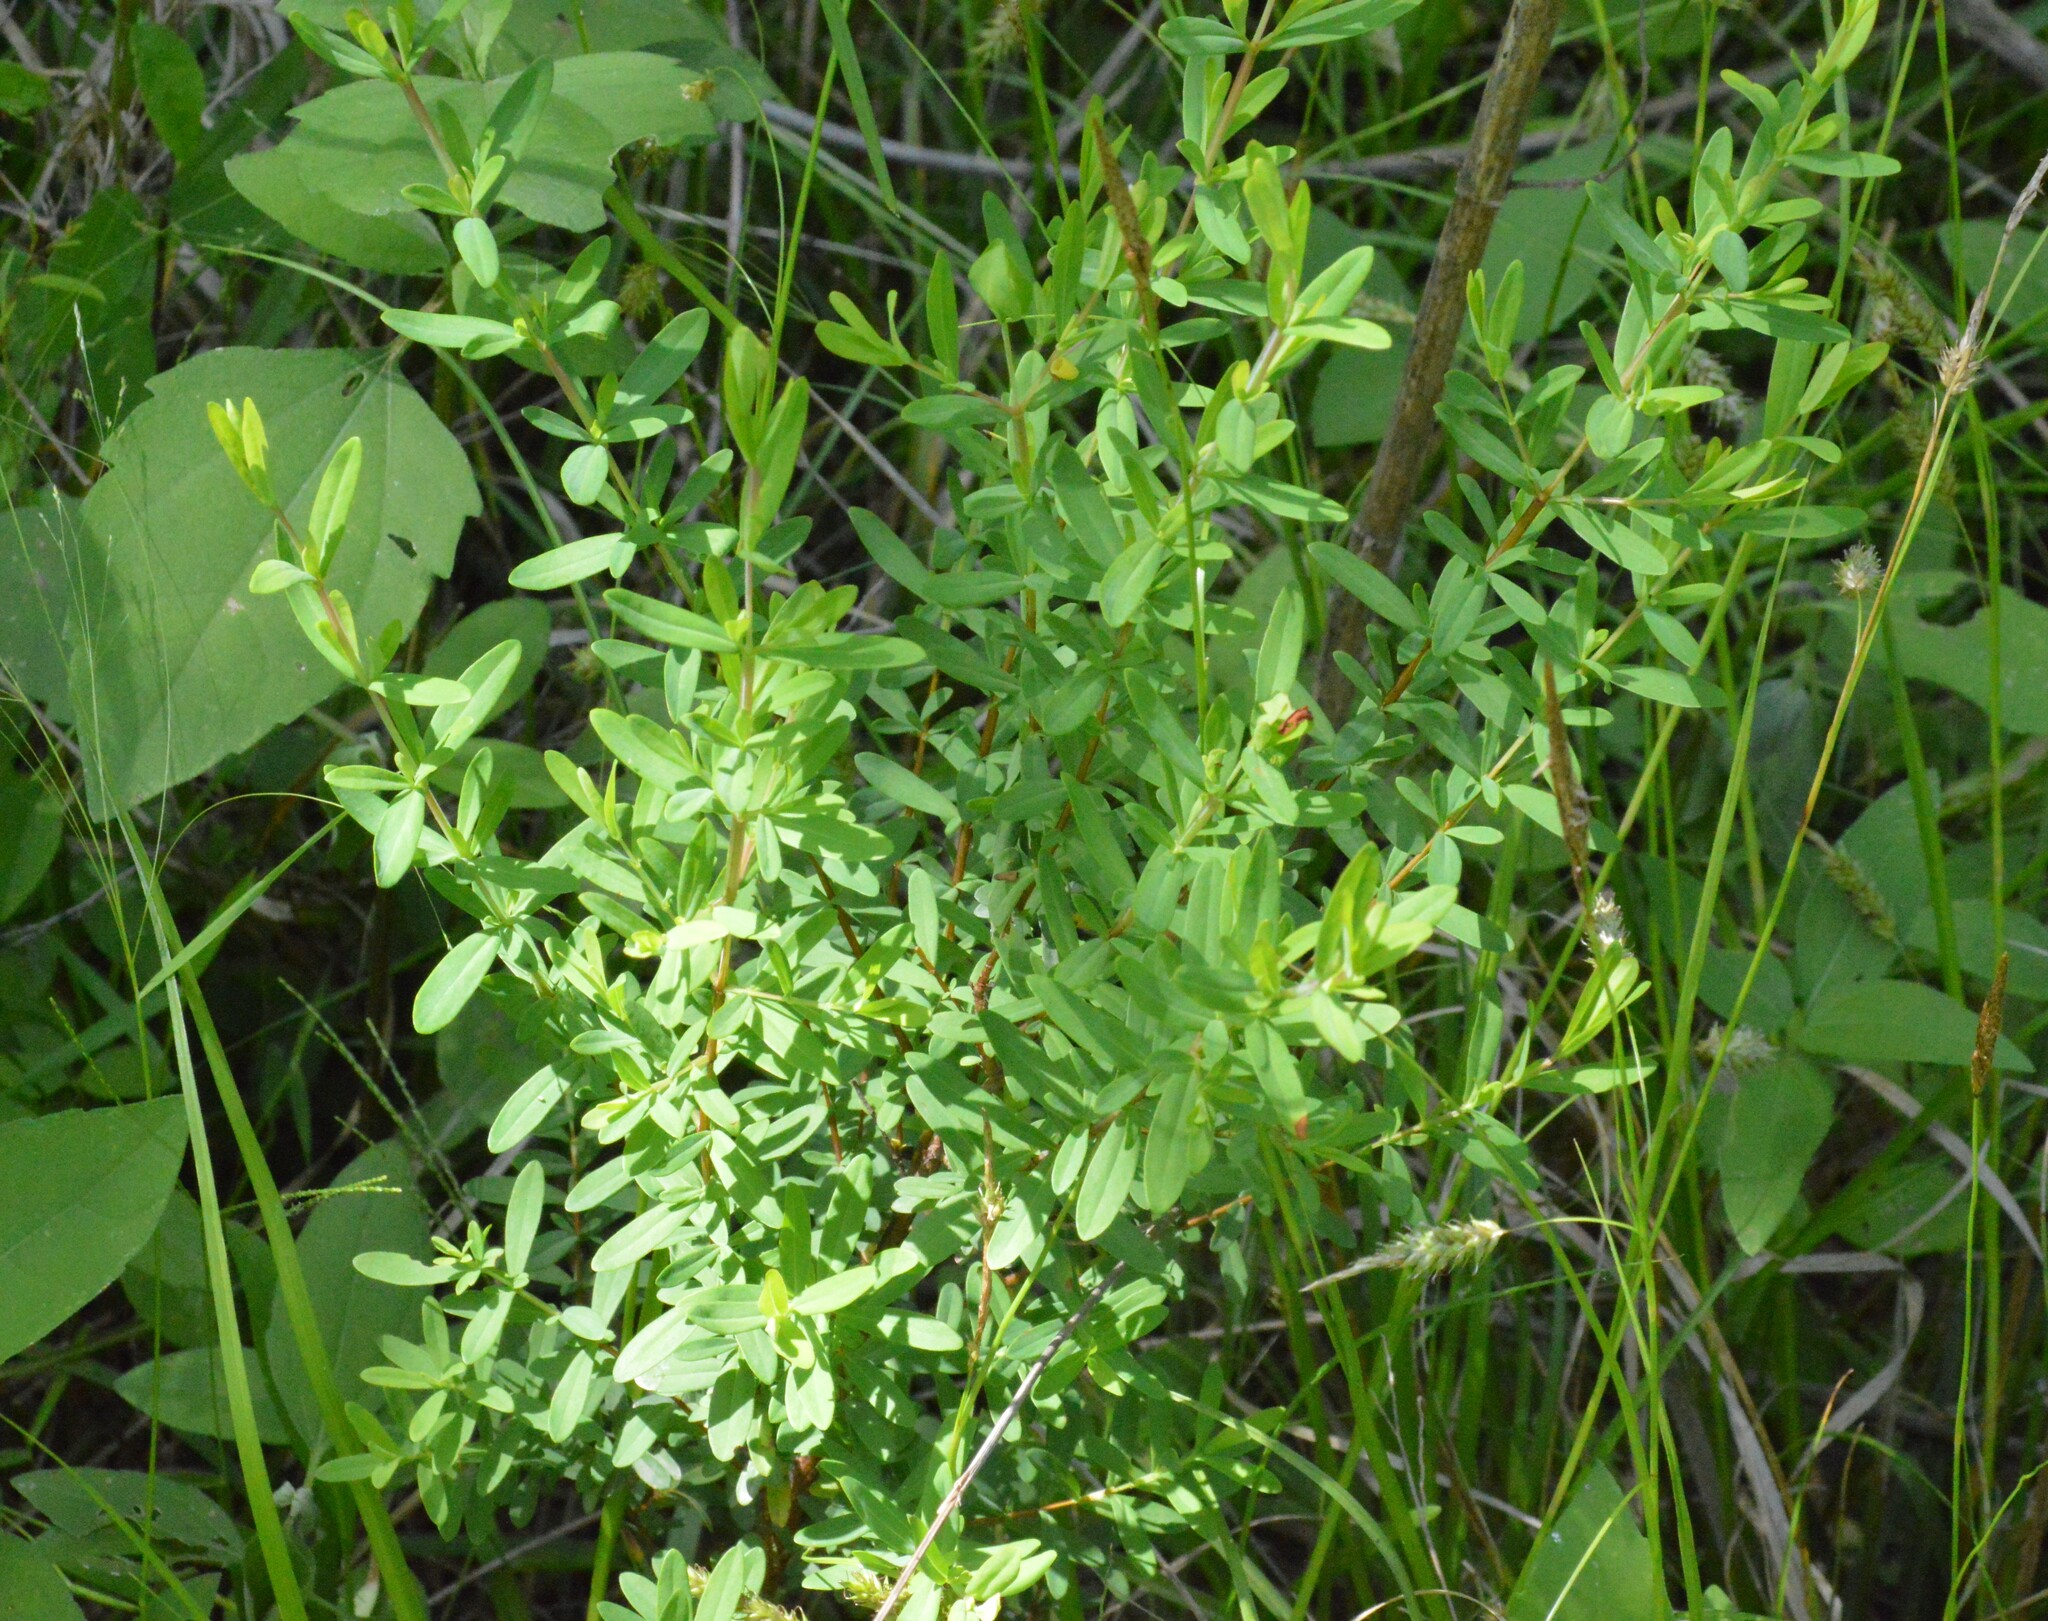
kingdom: Plantae
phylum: Tracheophyta
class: Magnoliopsida
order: Malpighiales
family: Hypericaceae
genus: Hypericum
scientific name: Hypericum hypericoides
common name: St. andrew's cross
